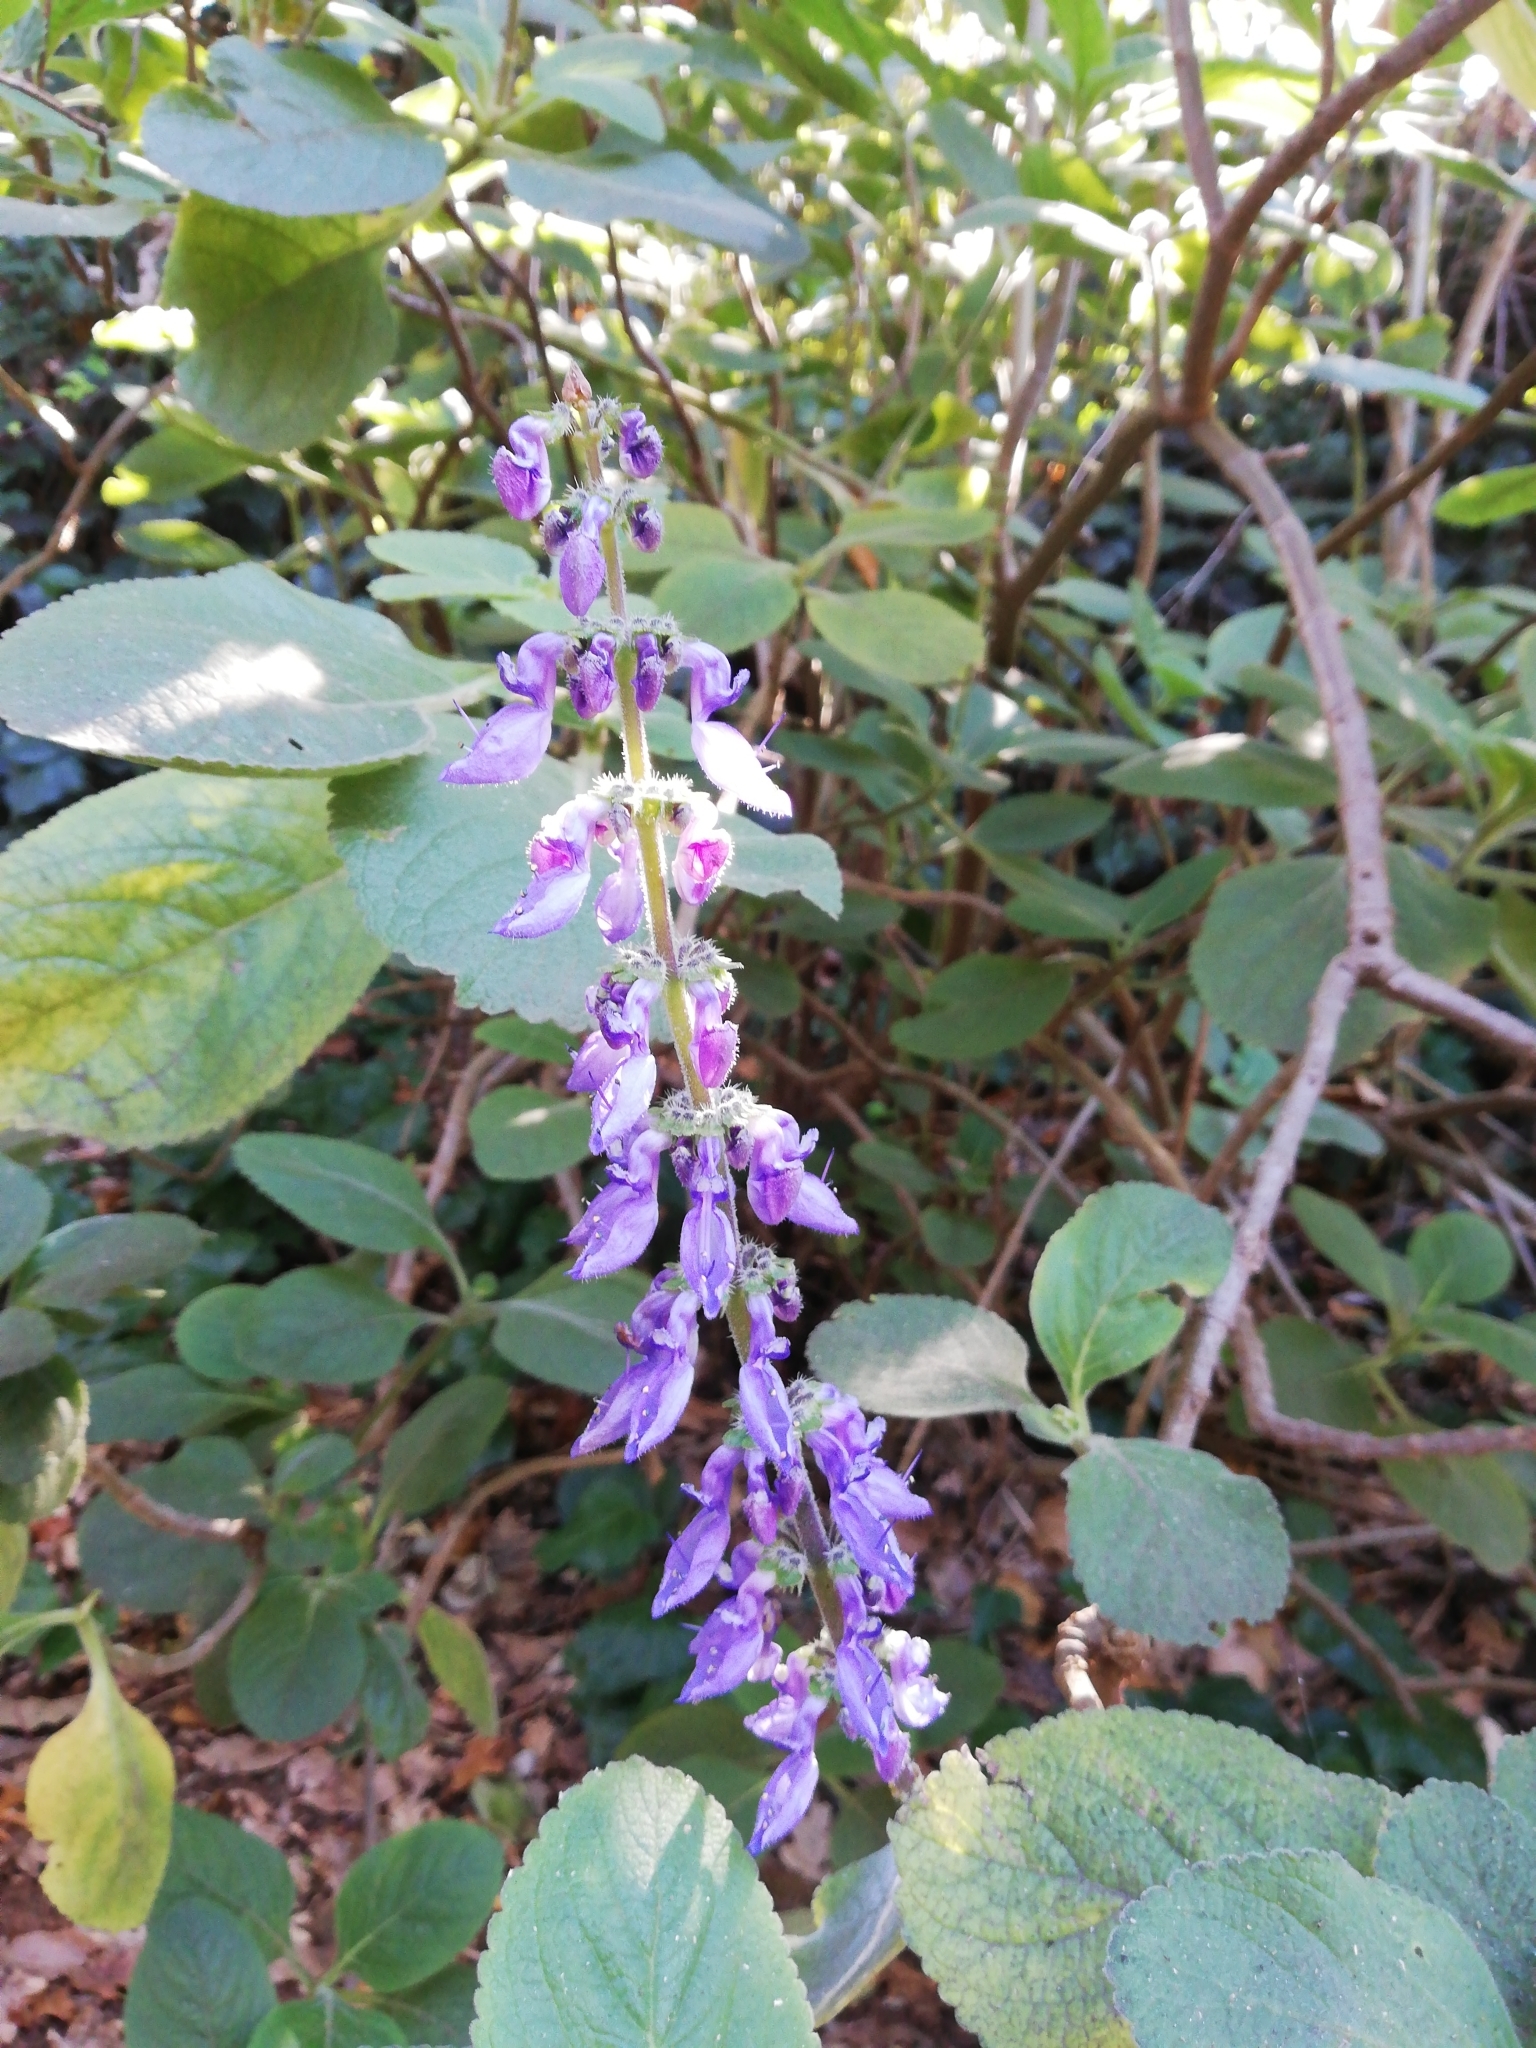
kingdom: Plantae
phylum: Tracheophyta
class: Magnoliopsida
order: Lamiales
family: Lamiaceae
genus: Coleus
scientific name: Coleus barbatus
